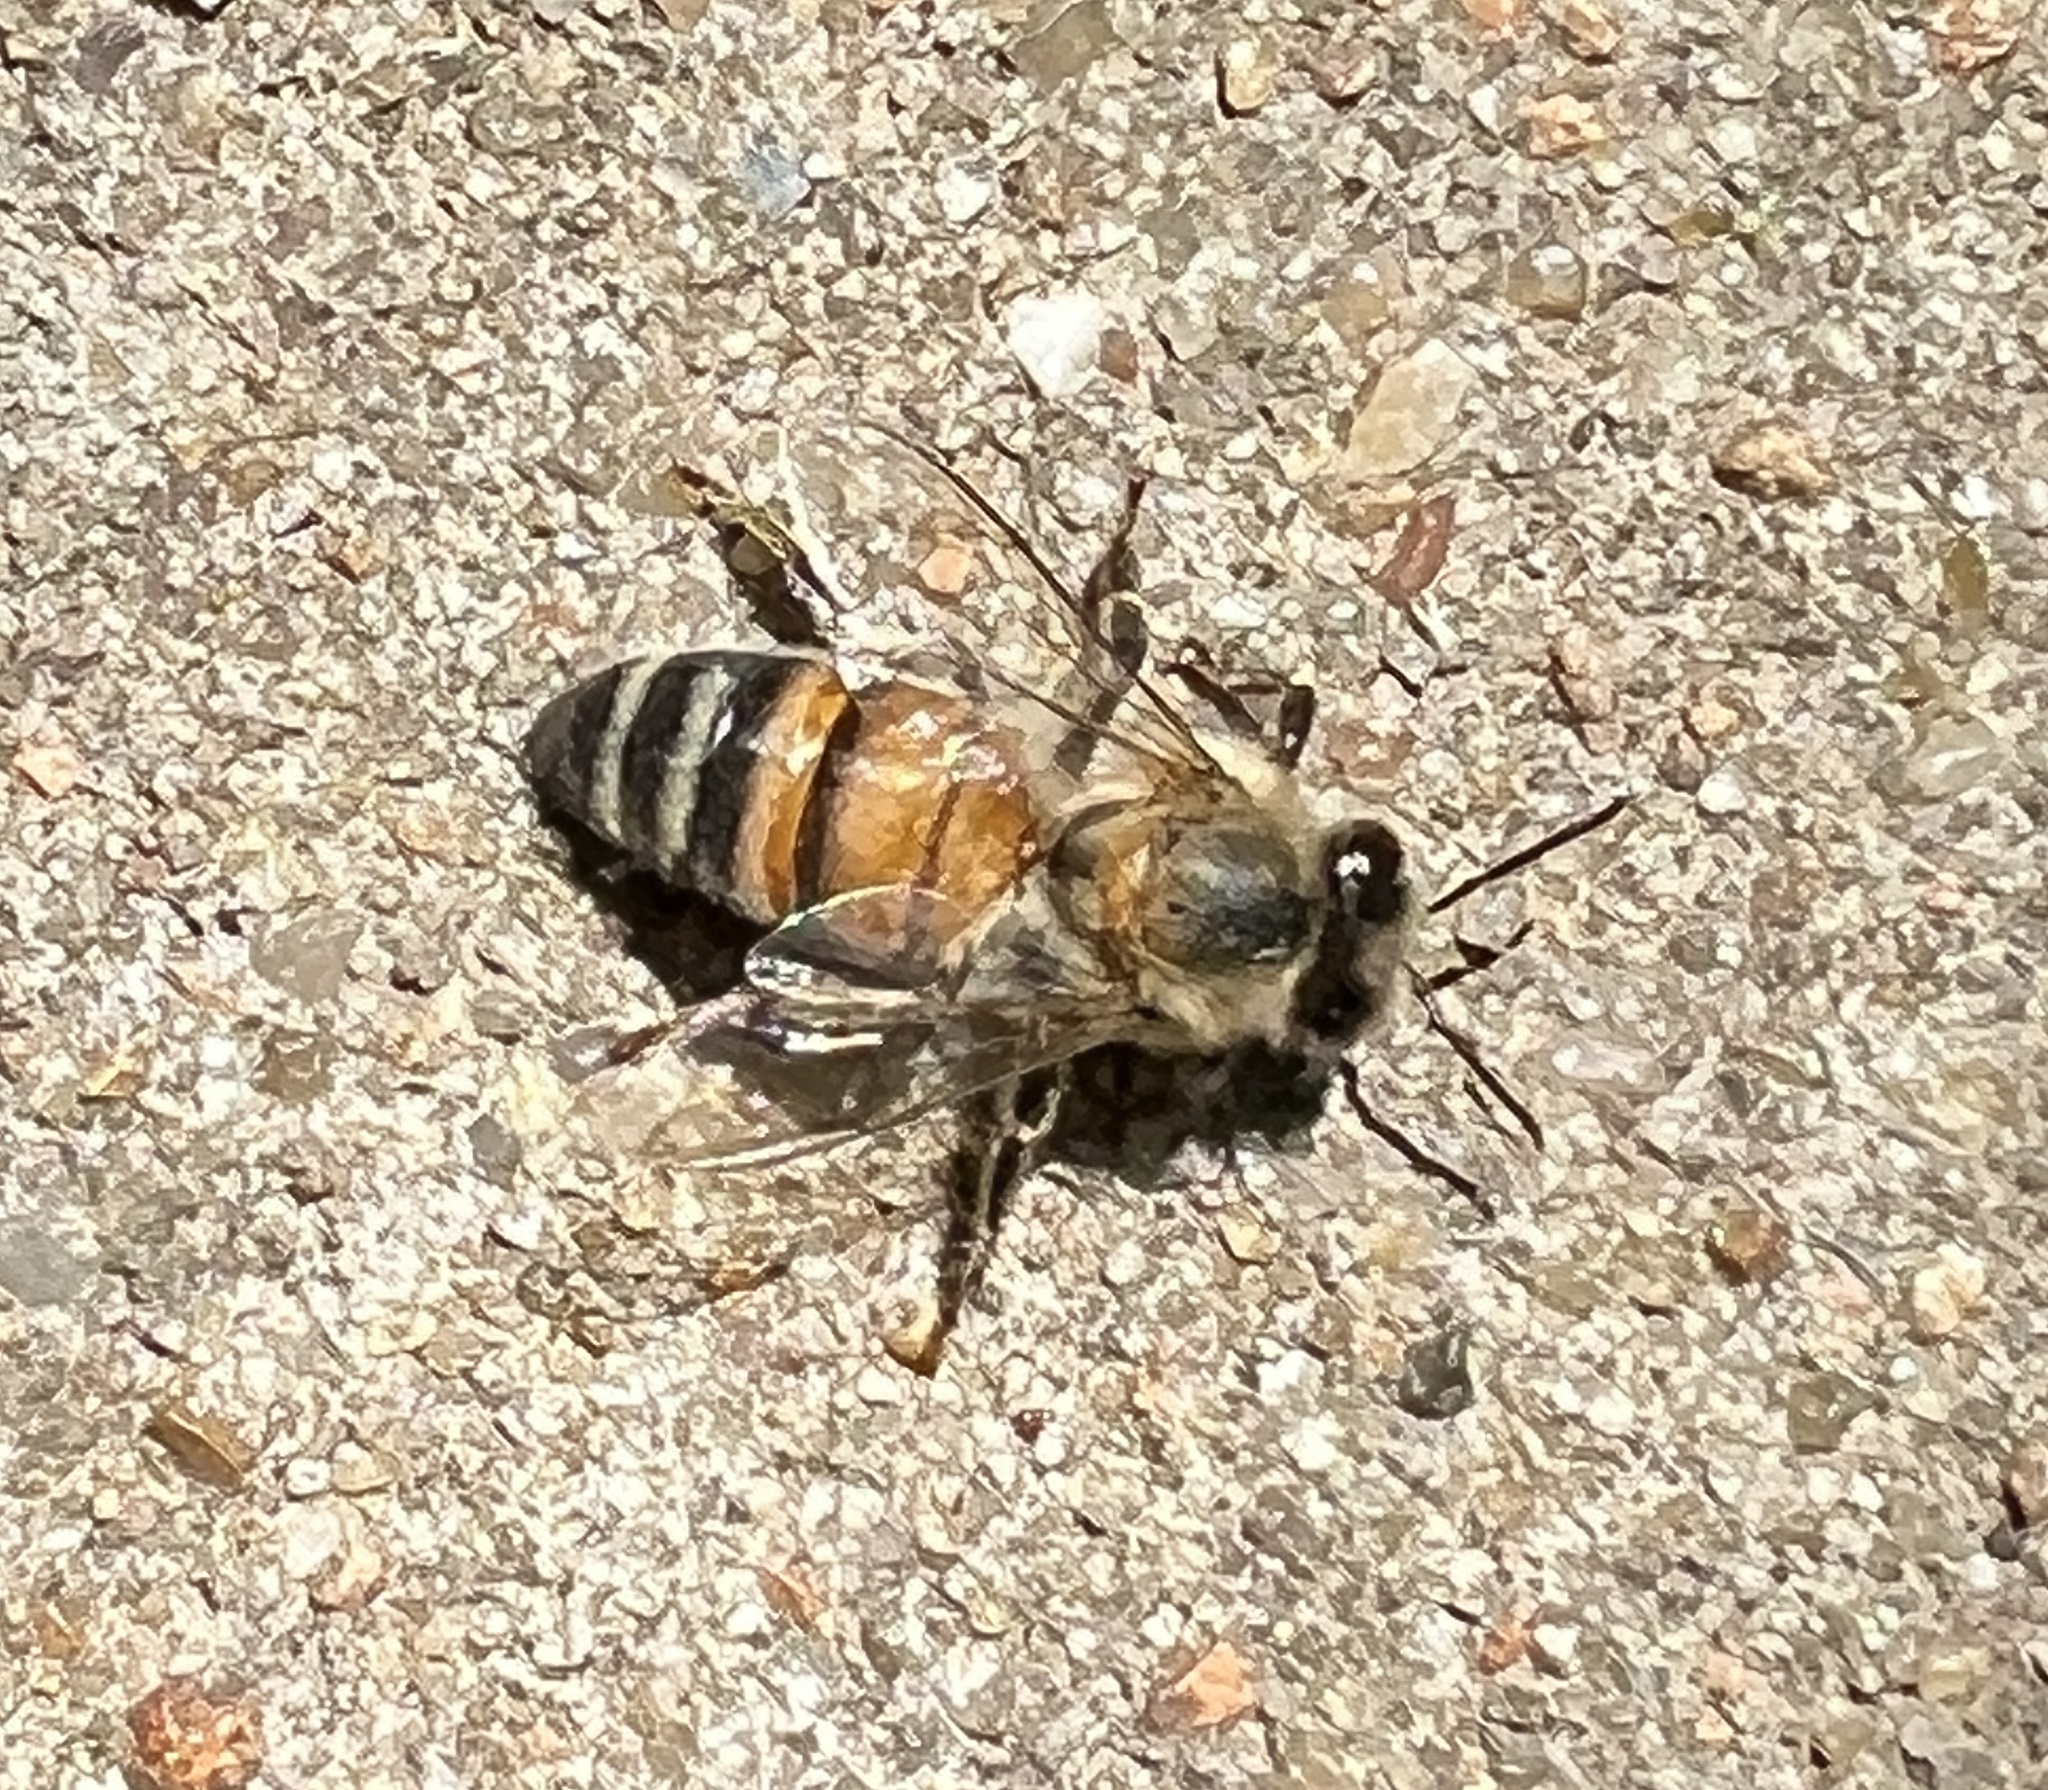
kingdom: Animalia
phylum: Arthropoda
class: Insecta
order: Hymenoptera
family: Apidae
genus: Apis
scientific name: Apis mellifera
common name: Honey bee
